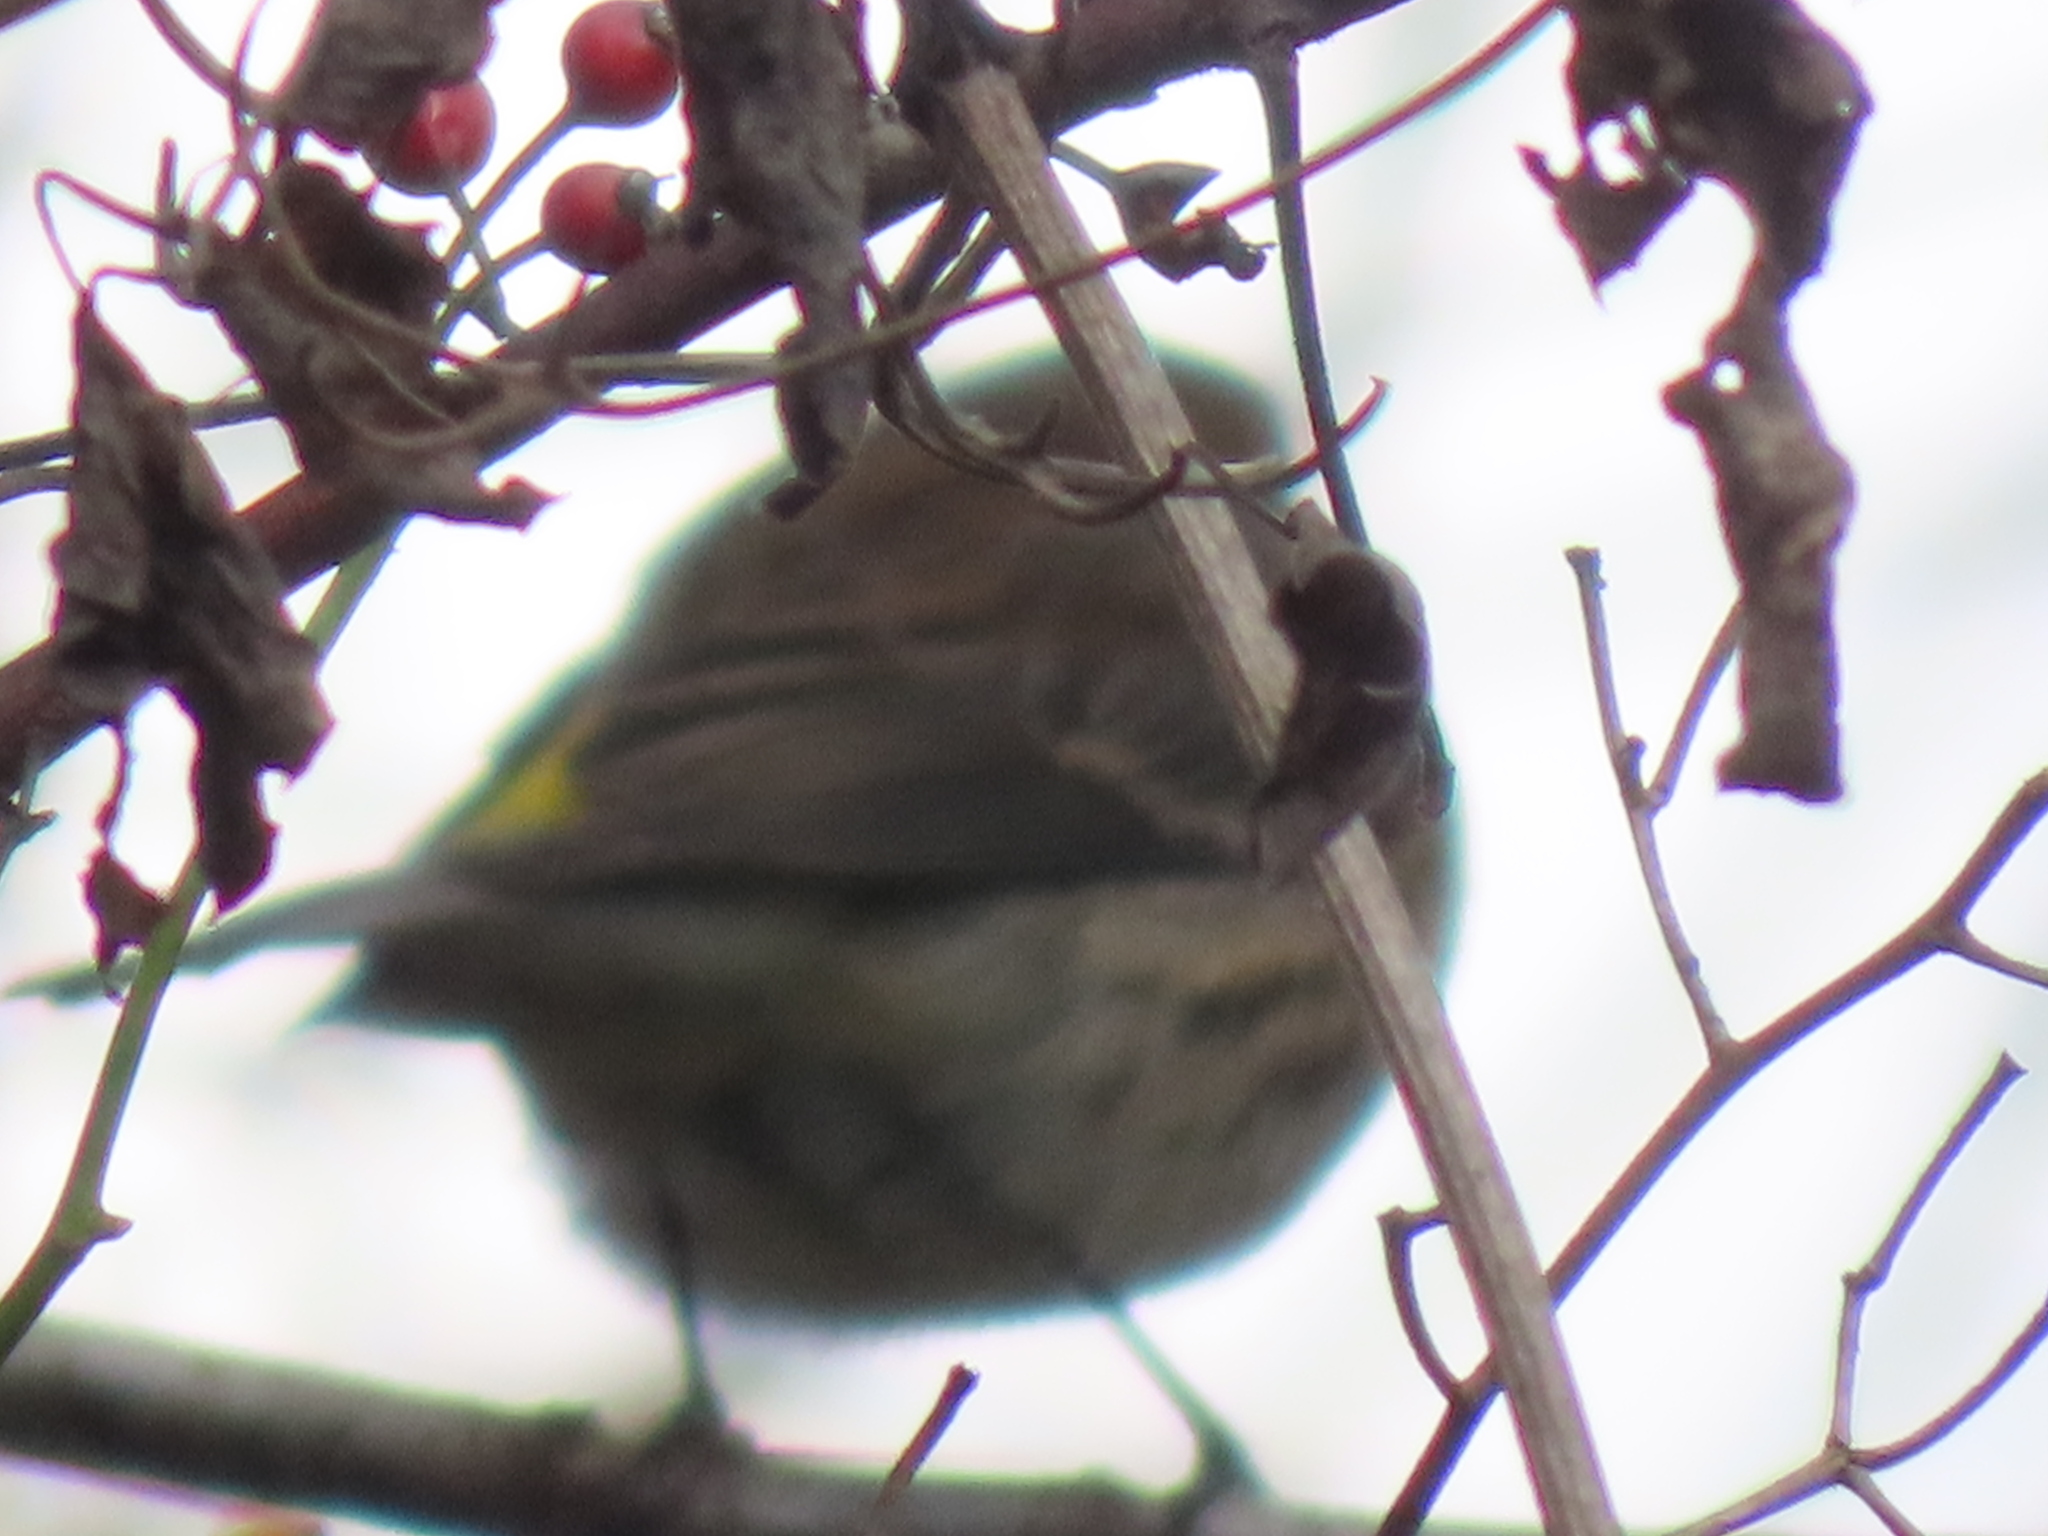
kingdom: Animalia
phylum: Chordata
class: Aves
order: Passeriformes
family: Parulidae
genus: Setophaga
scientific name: Setophaga coronata
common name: Myrtle warbler
